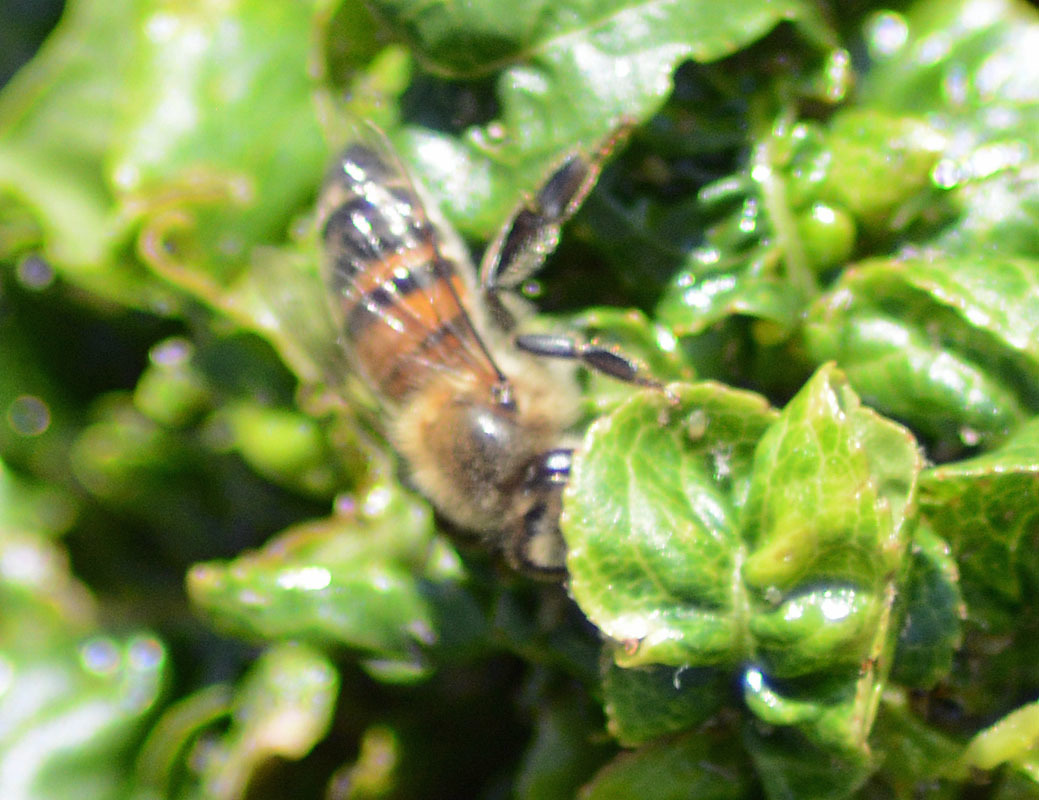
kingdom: Animalia
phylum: Arthropoda
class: Insecta
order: Hymenoptera
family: Apidae
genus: Apis
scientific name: Apis mellifera
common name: Honey bee
